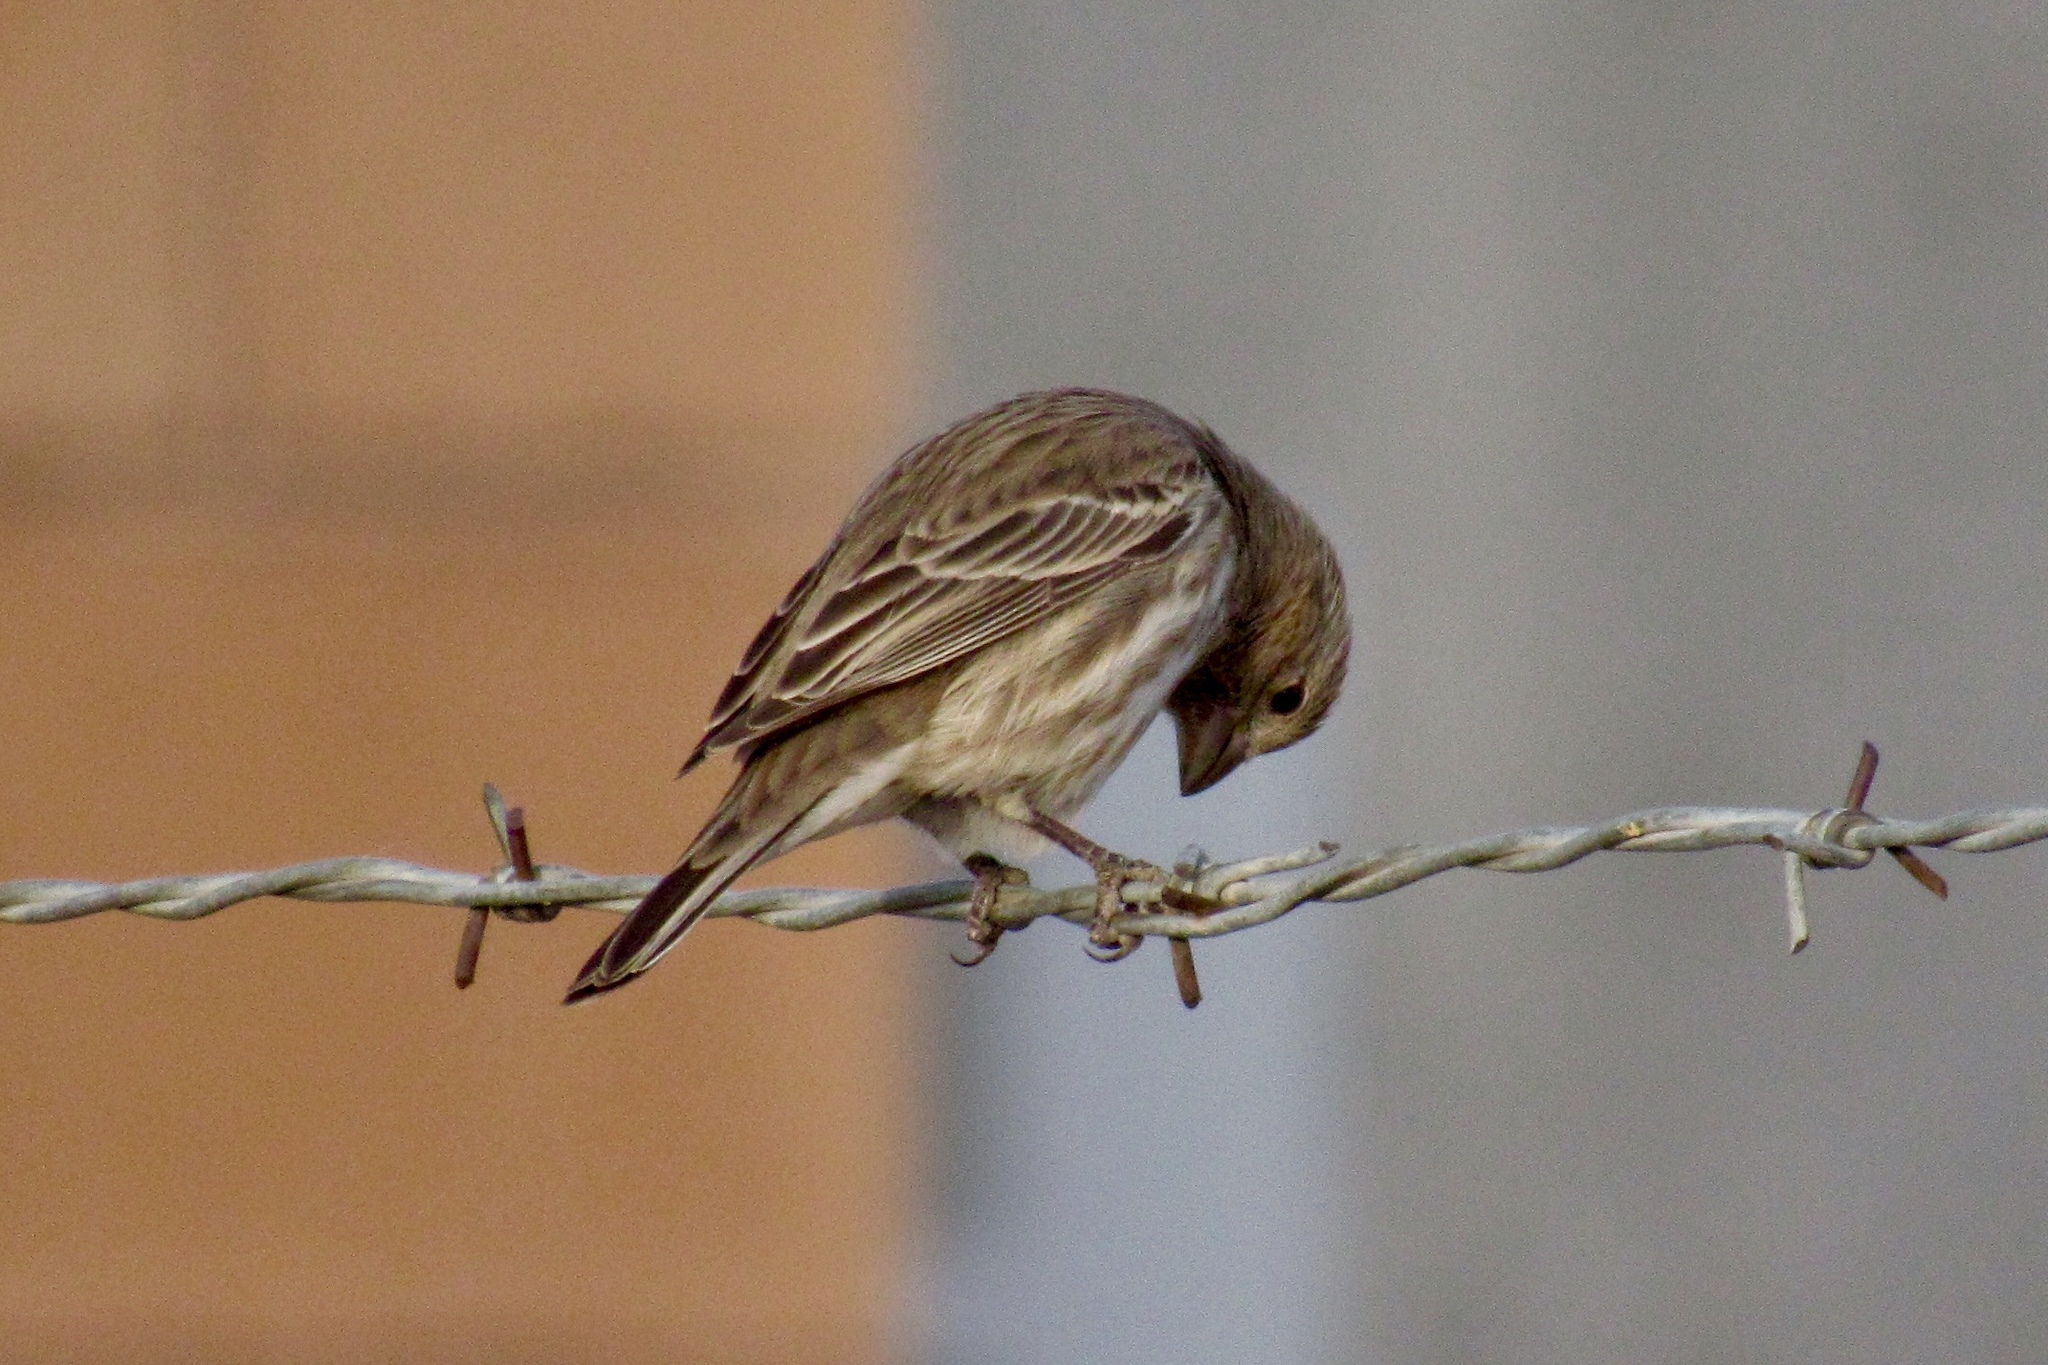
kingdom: Animalia
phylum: Chordata
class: Aves
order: Passeriformes
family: Fringillidae
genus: Haemorhous
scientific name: Haemorhous mexicanus
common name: House finch
